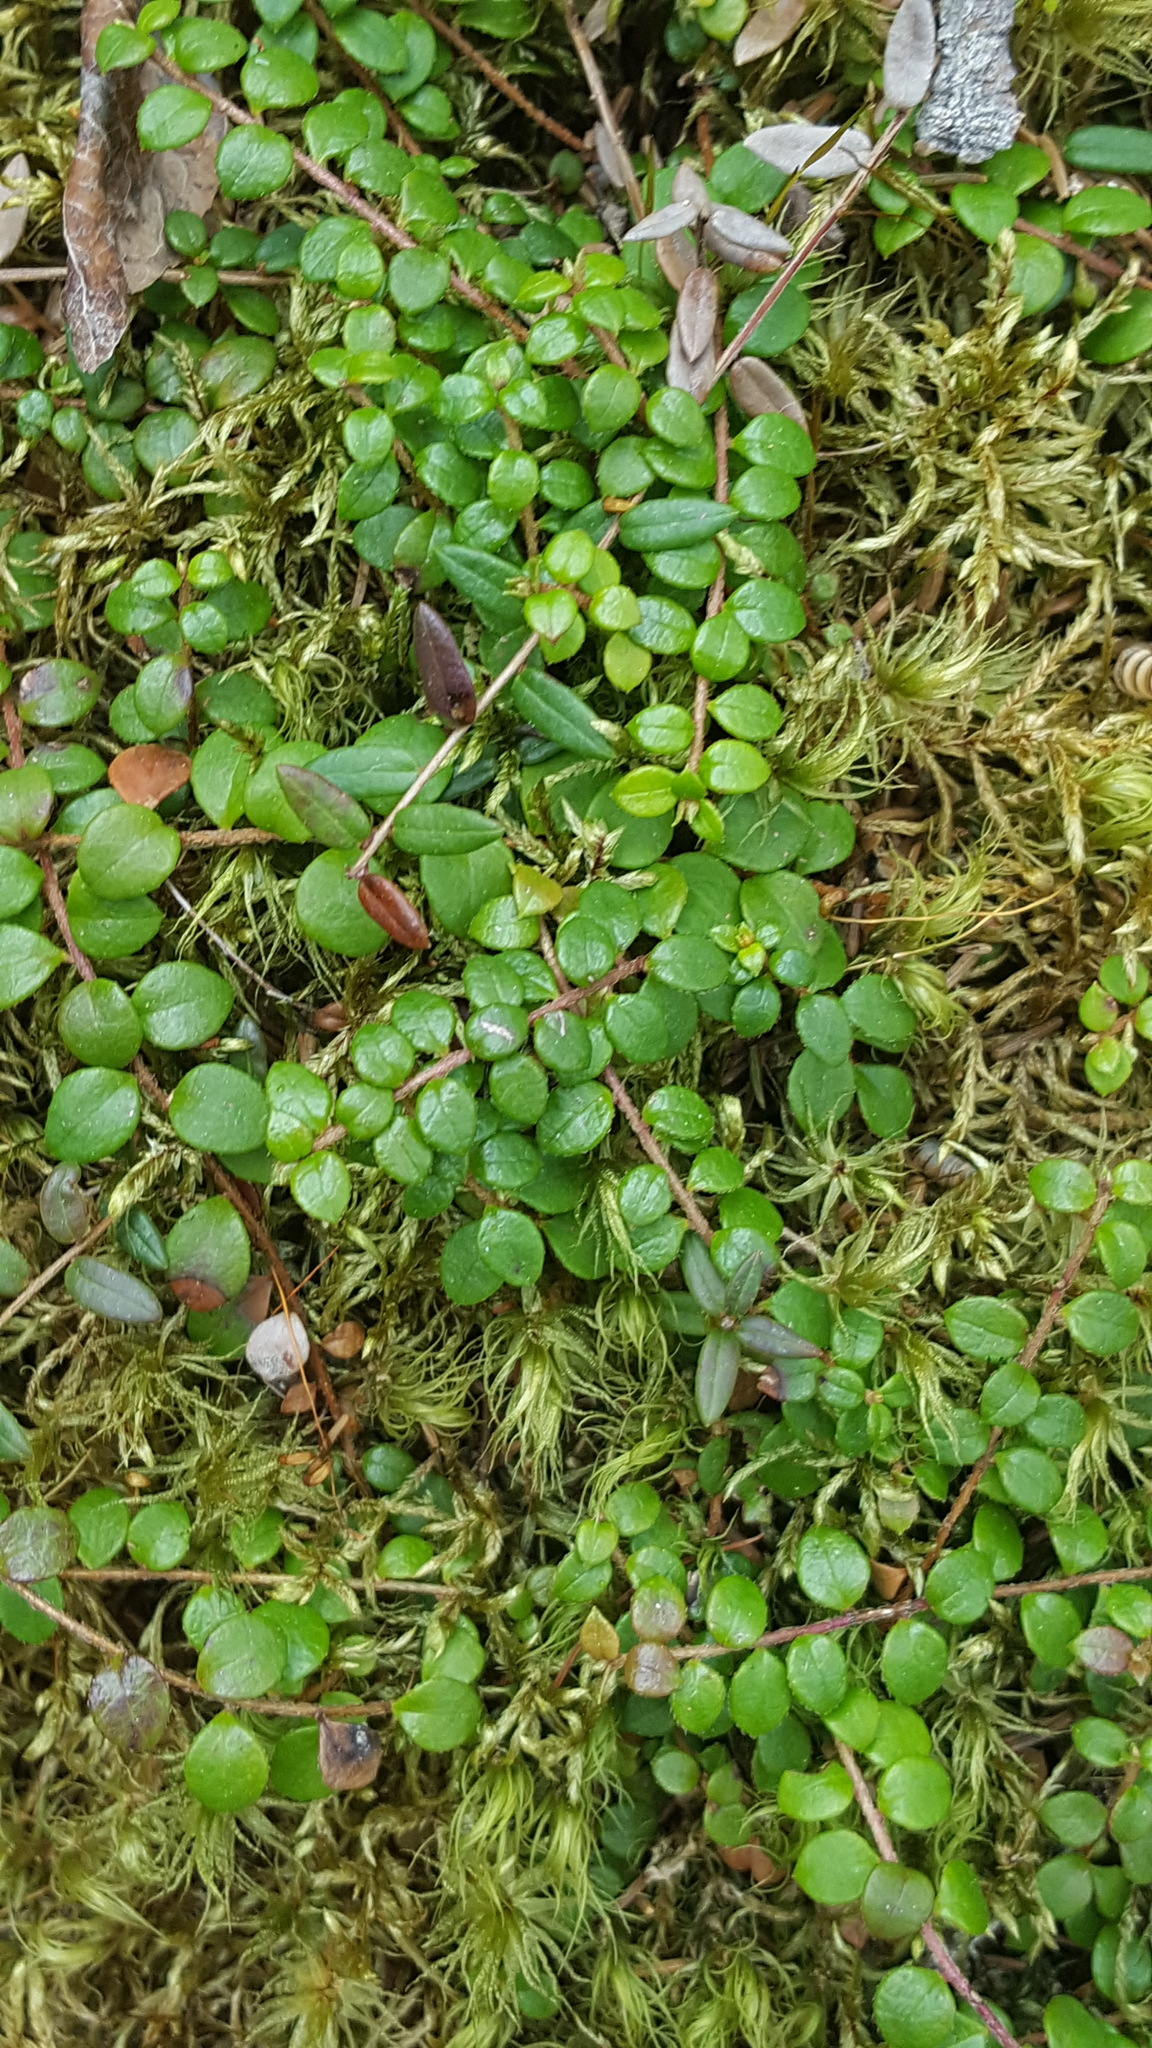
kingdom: Plantae
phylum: Tracheophyta
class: Magnoliopsida
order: Ericales
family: Ericaceae
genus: Gaultheria
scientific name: Gaultheria hispidula
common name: Cancer wintergreen
